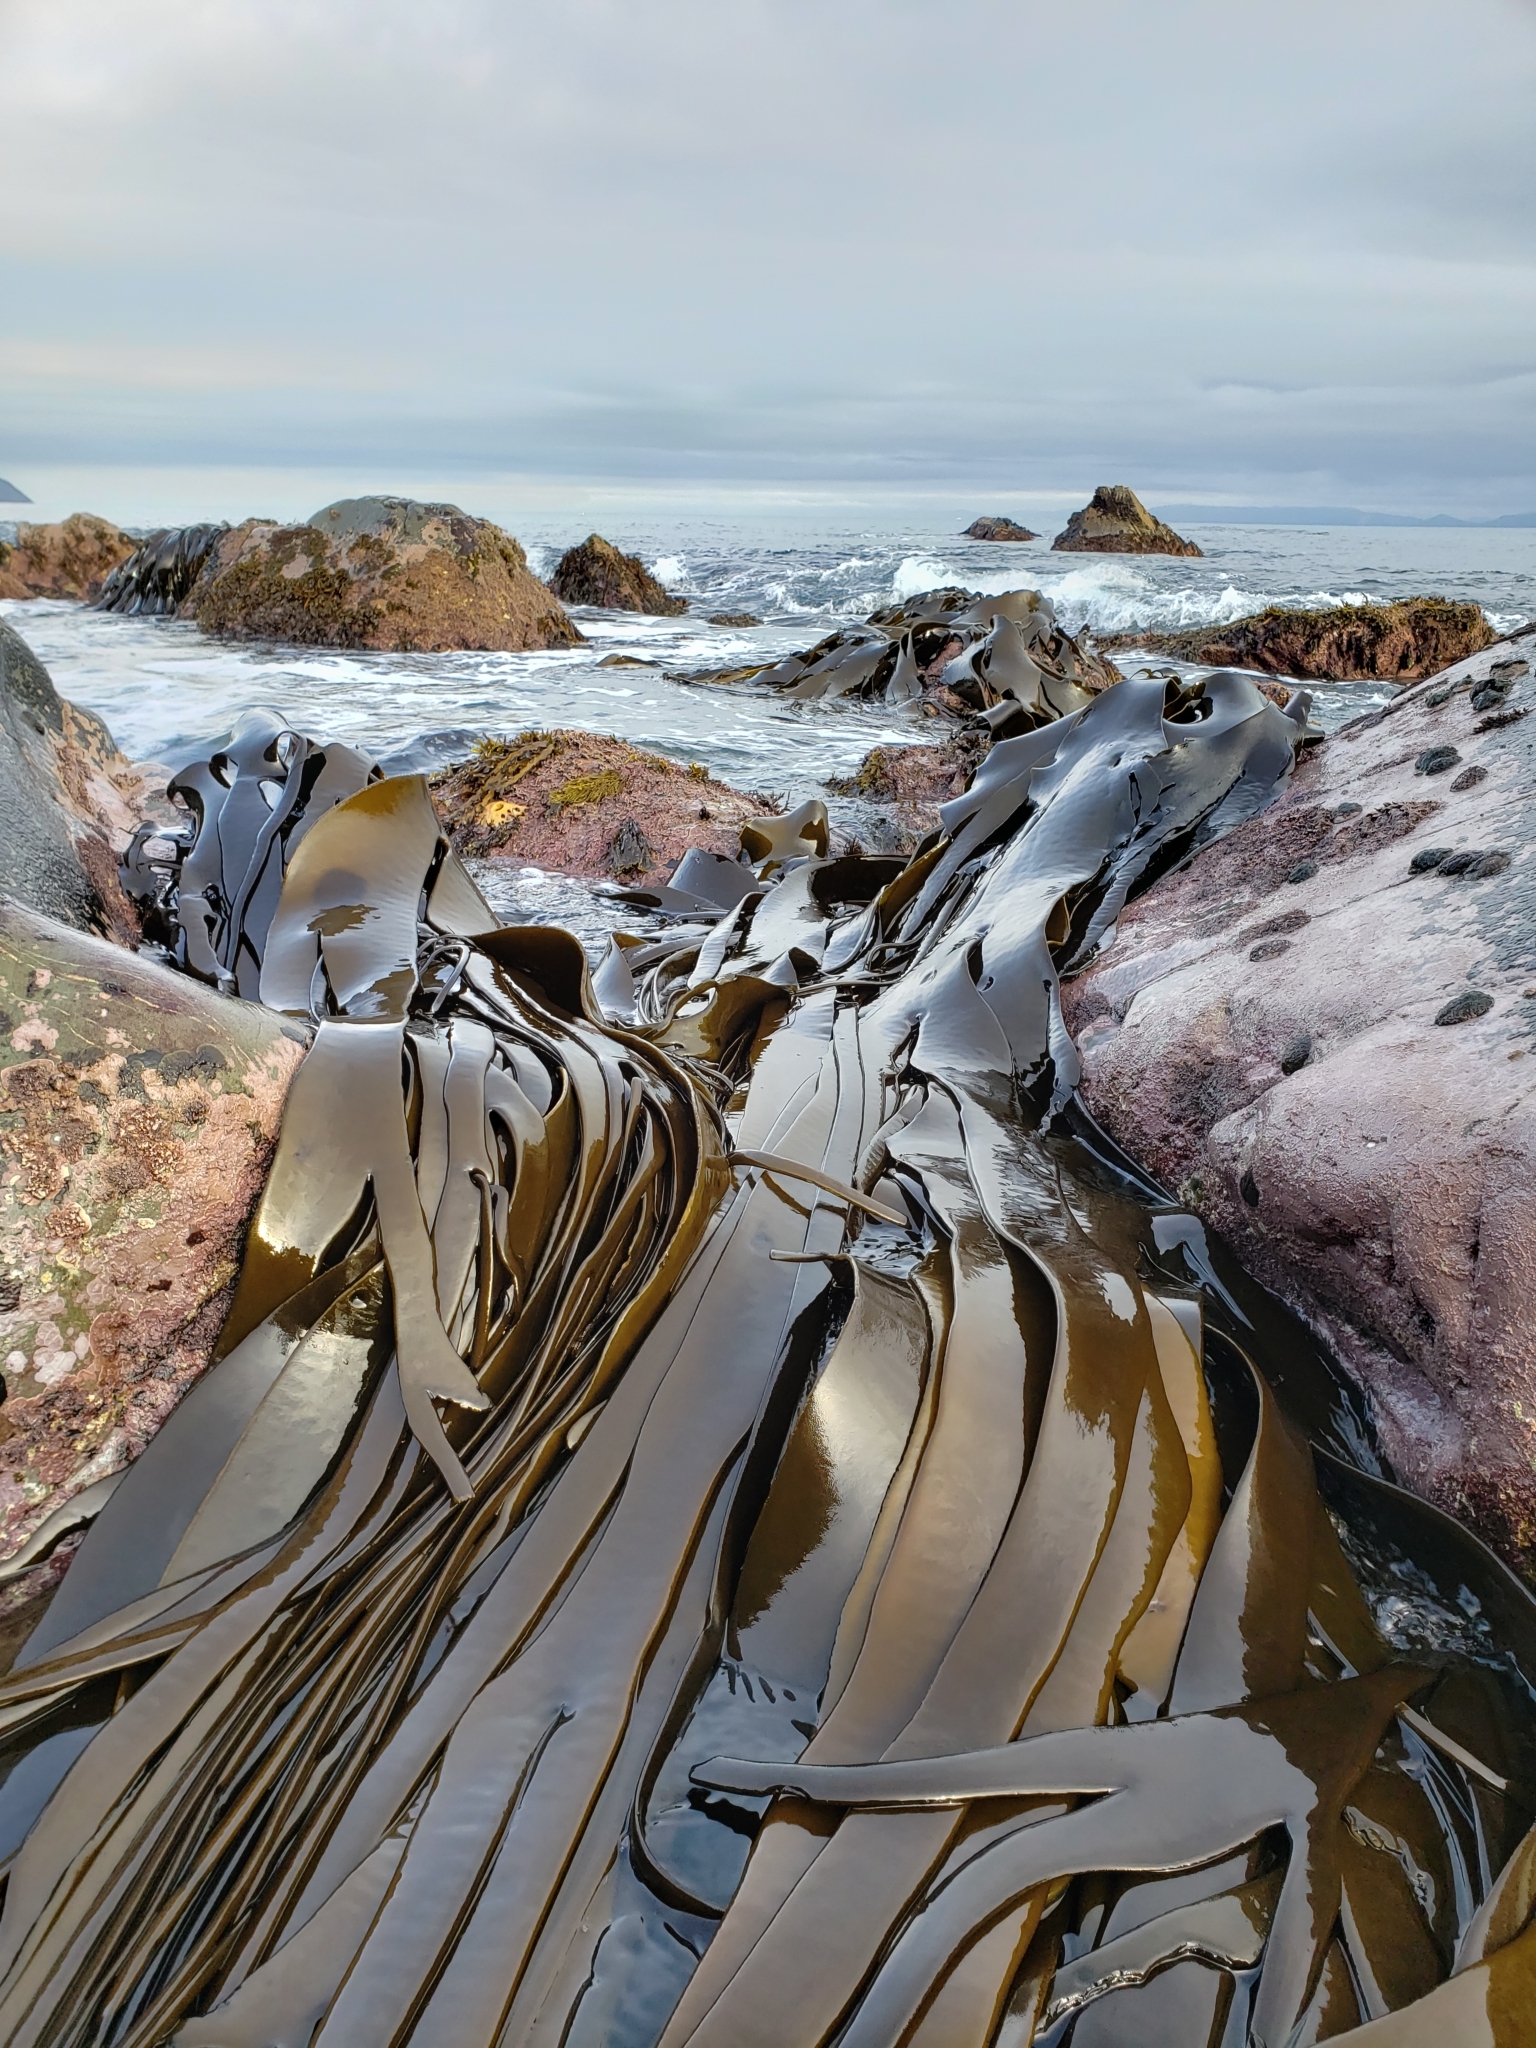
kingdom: Chromista
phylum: Ochrophyta
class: Phaeophyceae
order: Fucales
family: Durvillaeaceae
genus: Durvillaea
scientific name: Durvillaea antarctica
